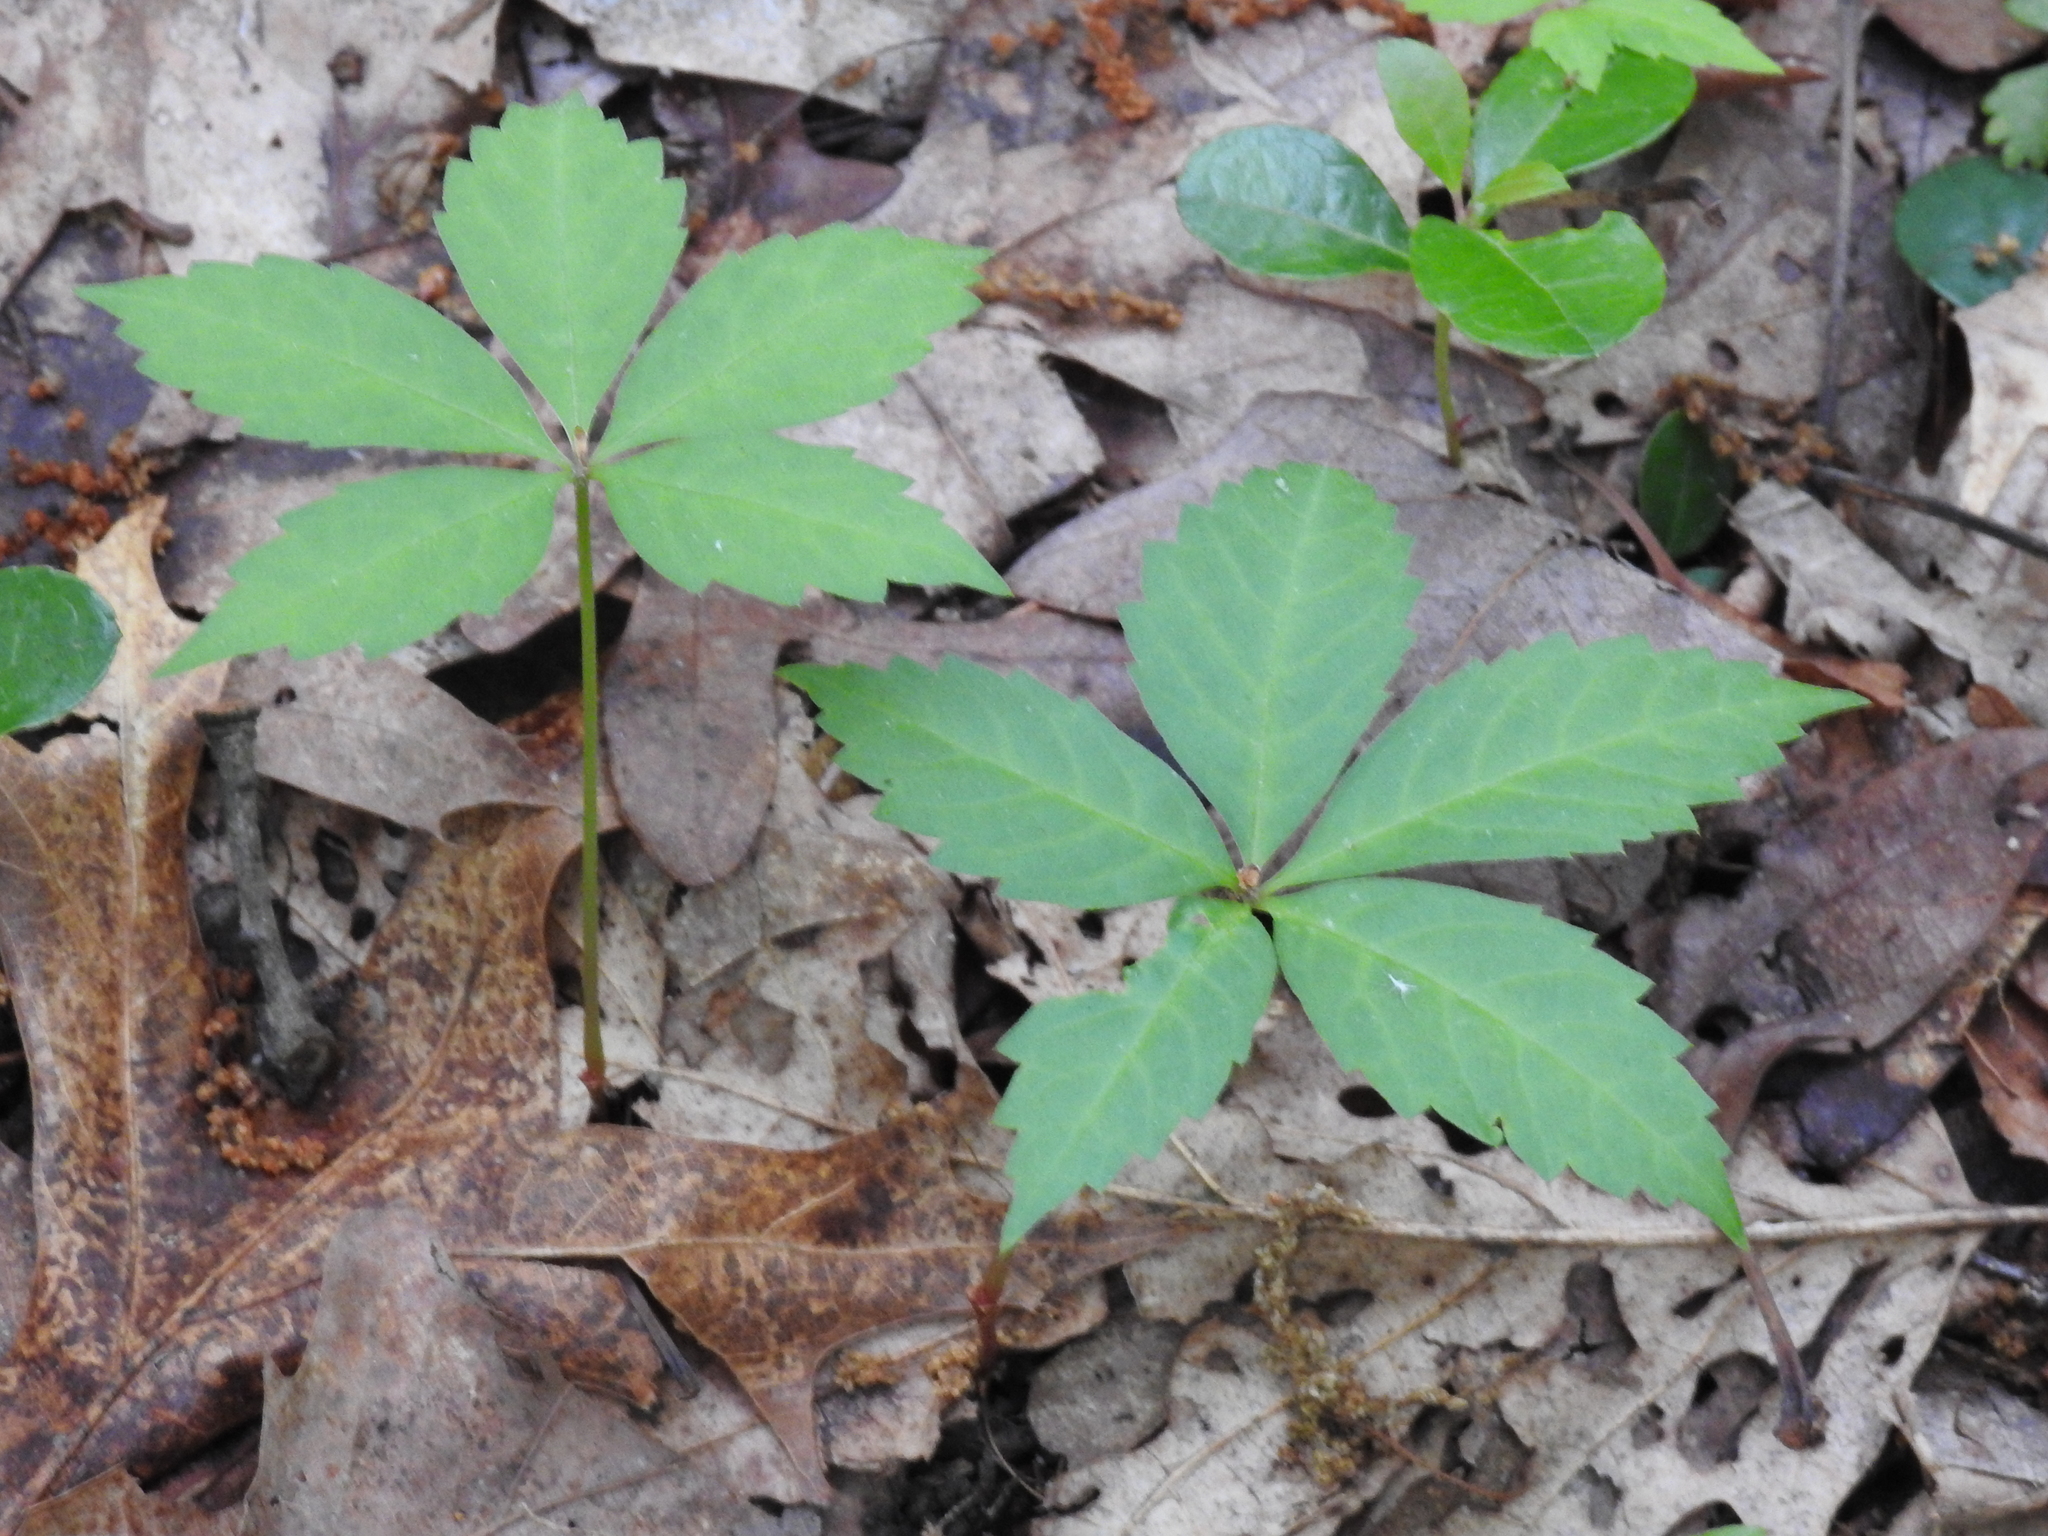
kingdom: Plantae
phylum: Tracheophyta
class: Magnoliopsida
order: Vitales
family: Vitaceae
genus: Parthenocissus
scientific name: Parthenocissus quinquefolia
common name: Virginia-creeper
